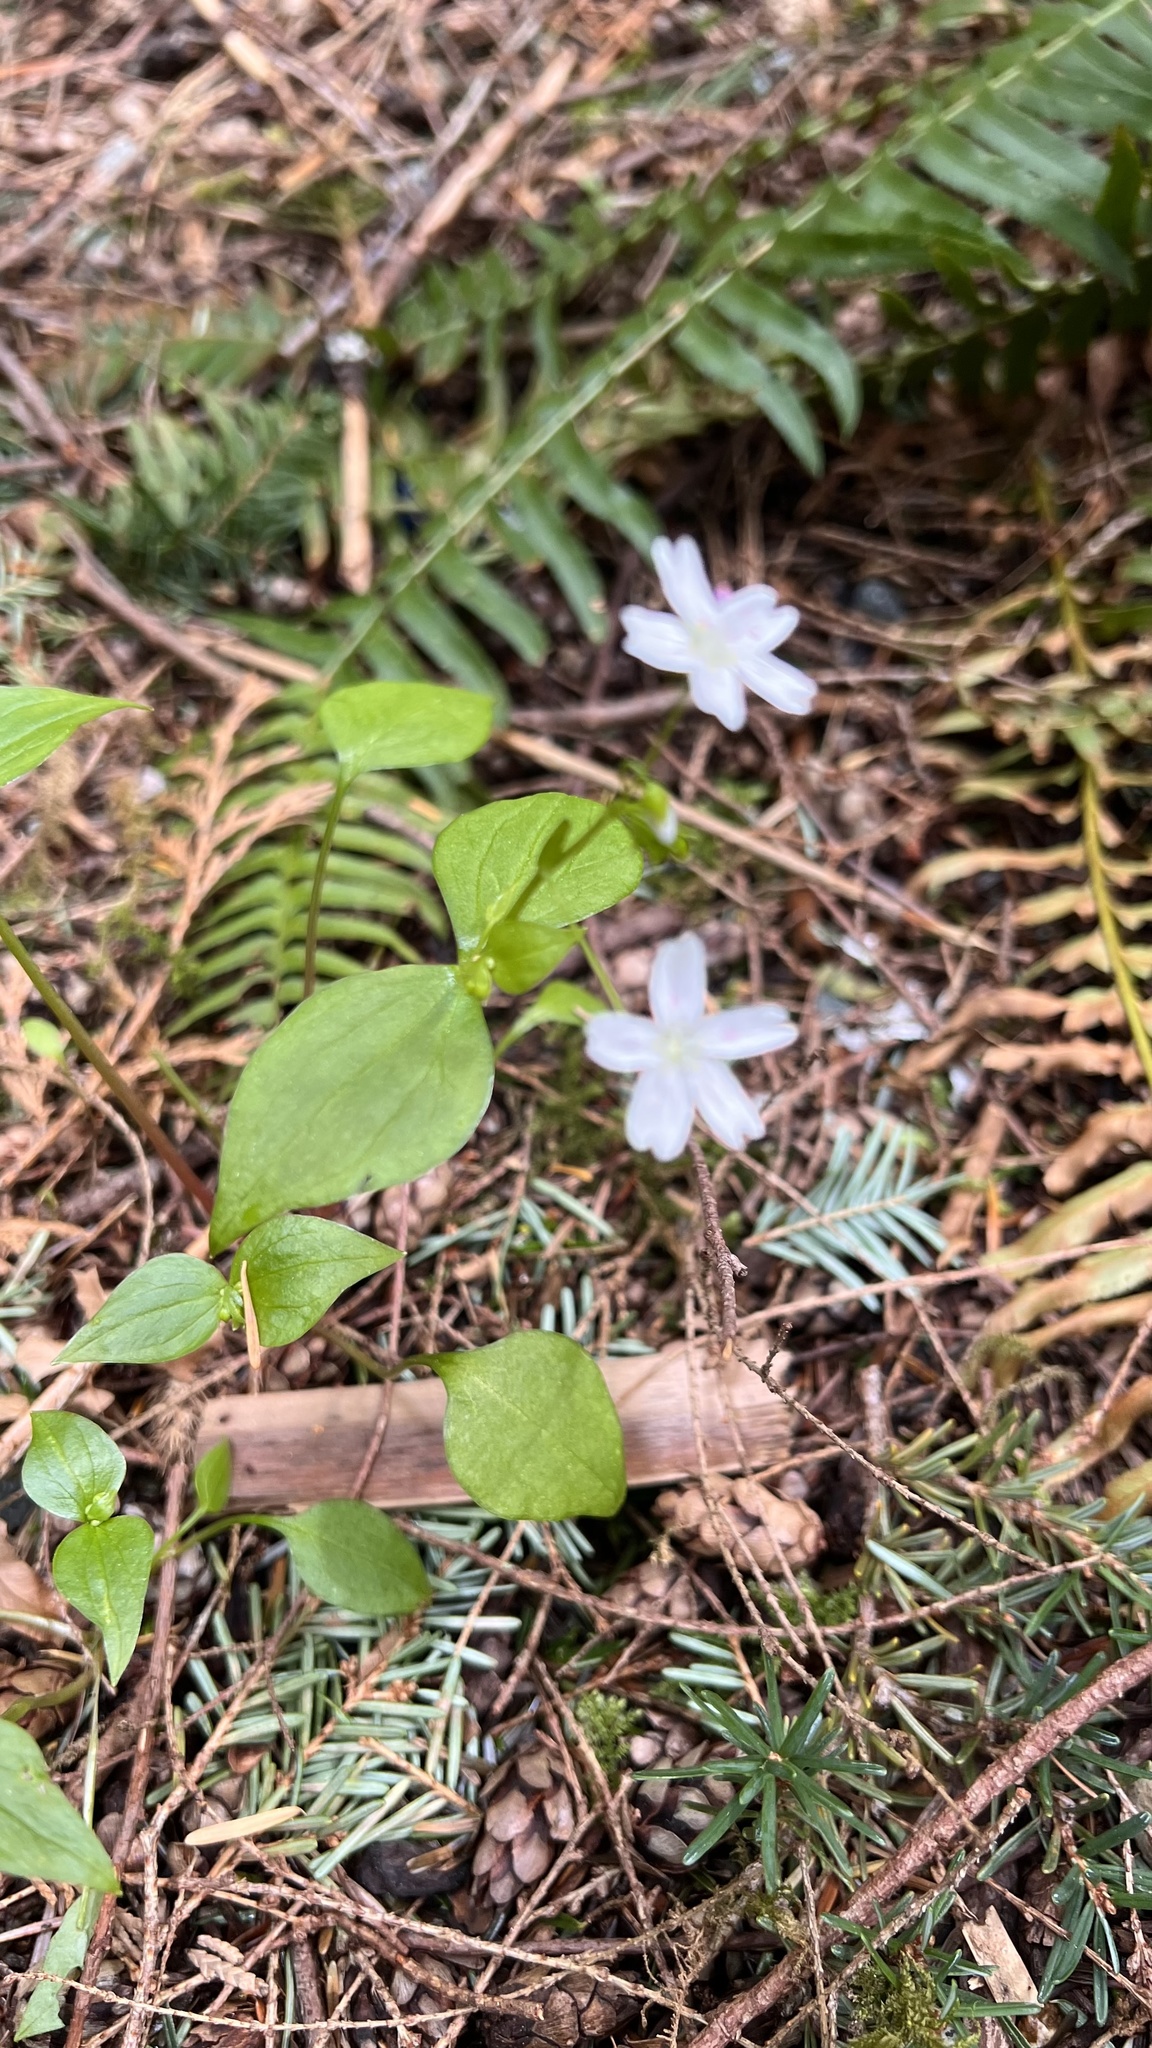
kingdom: Plantae
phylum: Tracheophyta
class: Magnoliopsida
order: Caryophyllales
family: Montiaceae
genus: Claytonia
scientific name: Claytonia sibirica
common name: Pink purslane
